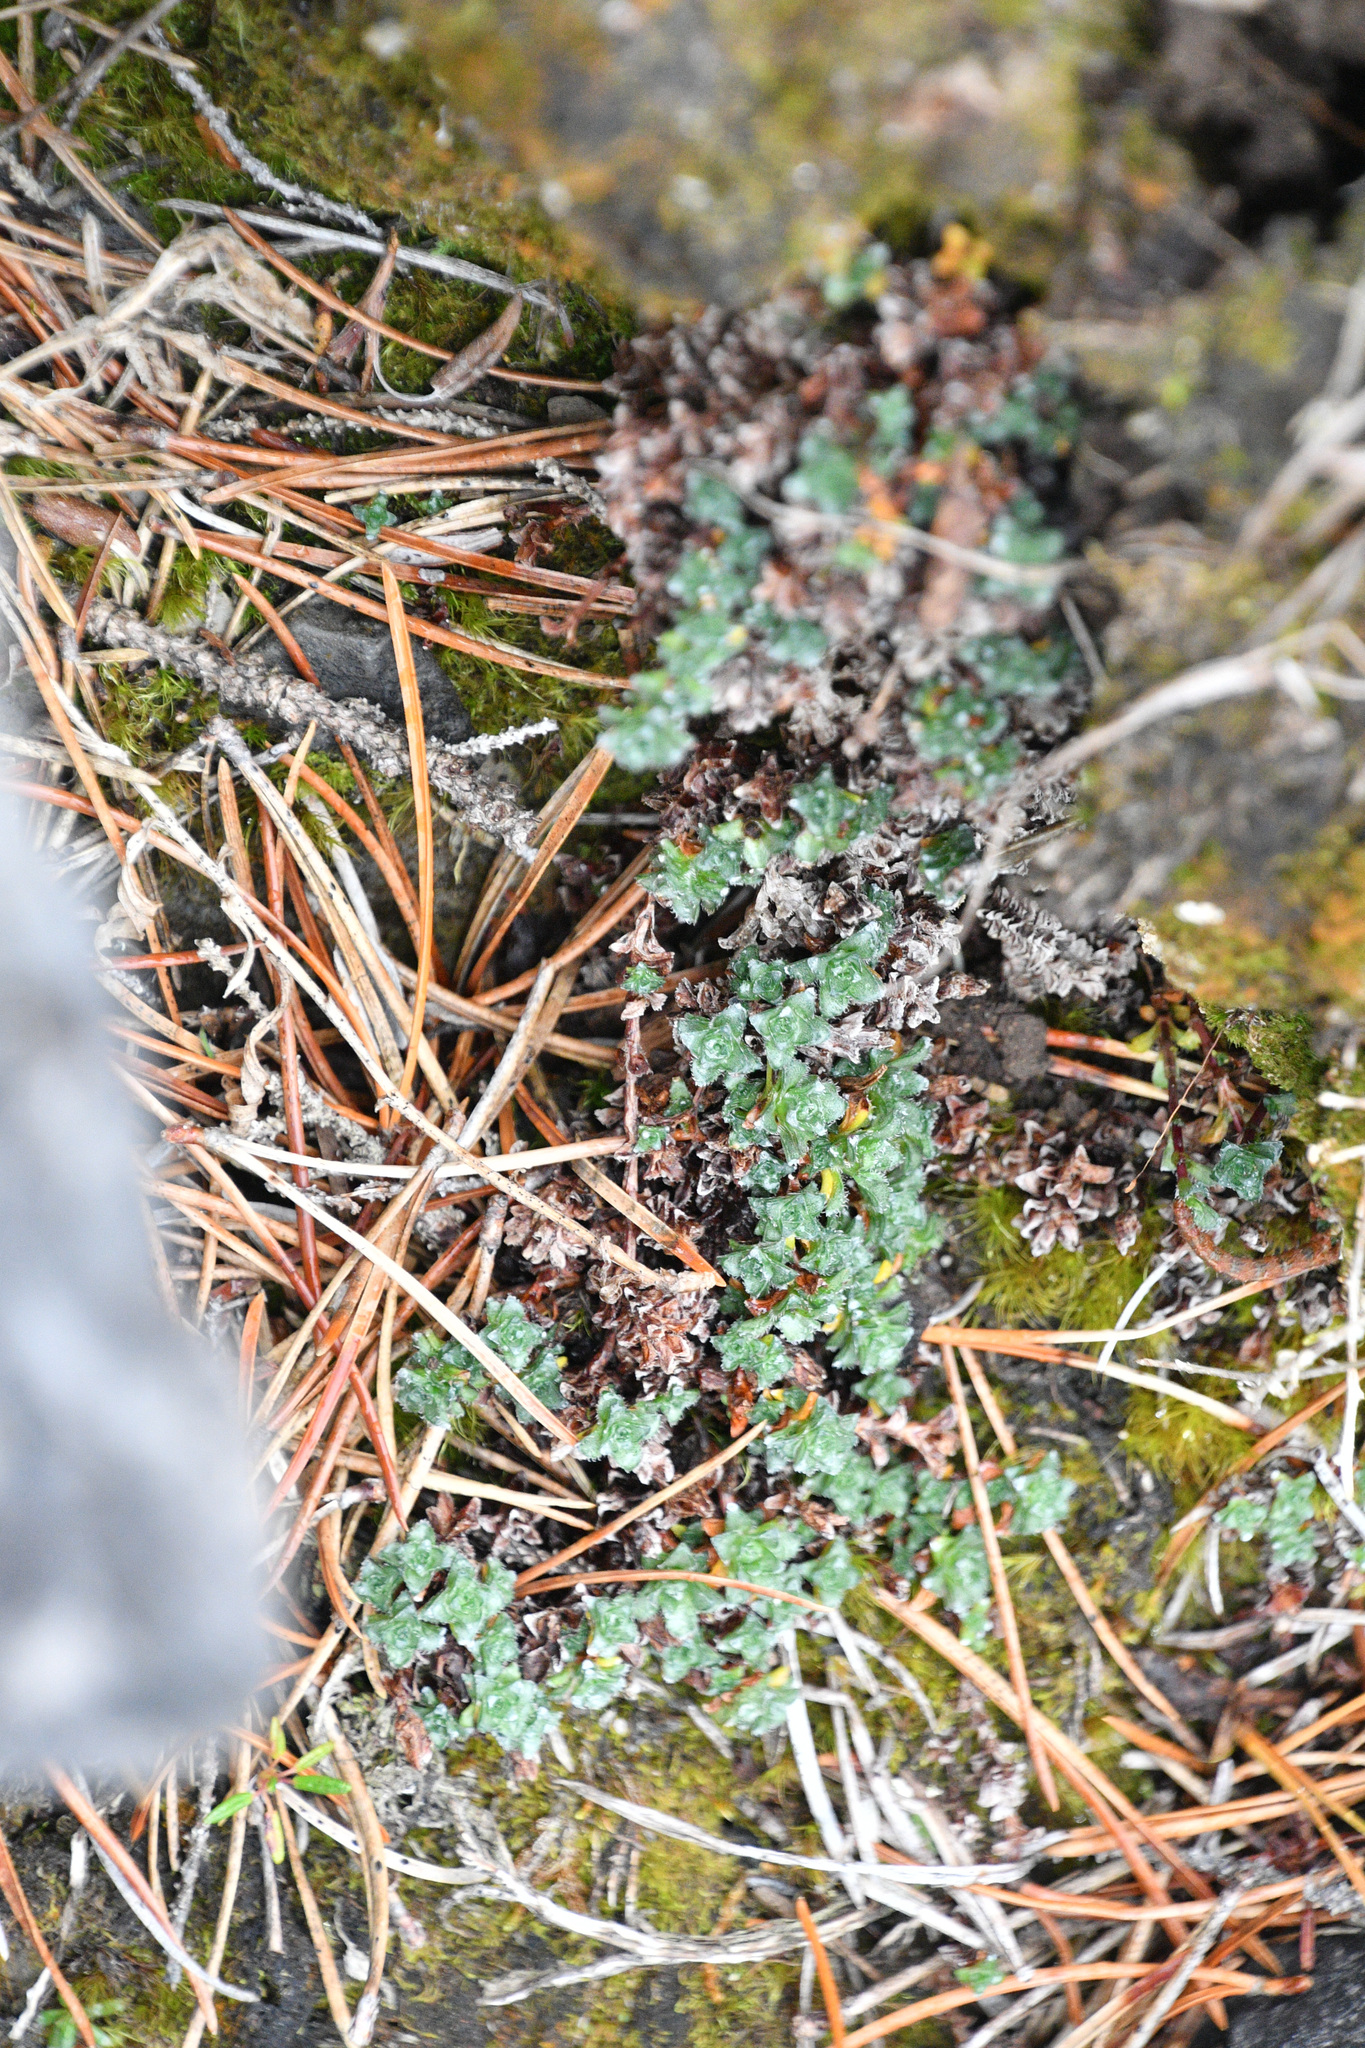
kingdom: Plantae
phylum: Tracheophyta
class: Magnoliopsida
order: Saxifragales
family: Saxifragaceae
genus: Saxifraga
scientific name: Saxifraga oppositifolia
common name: Purple saxifrage
